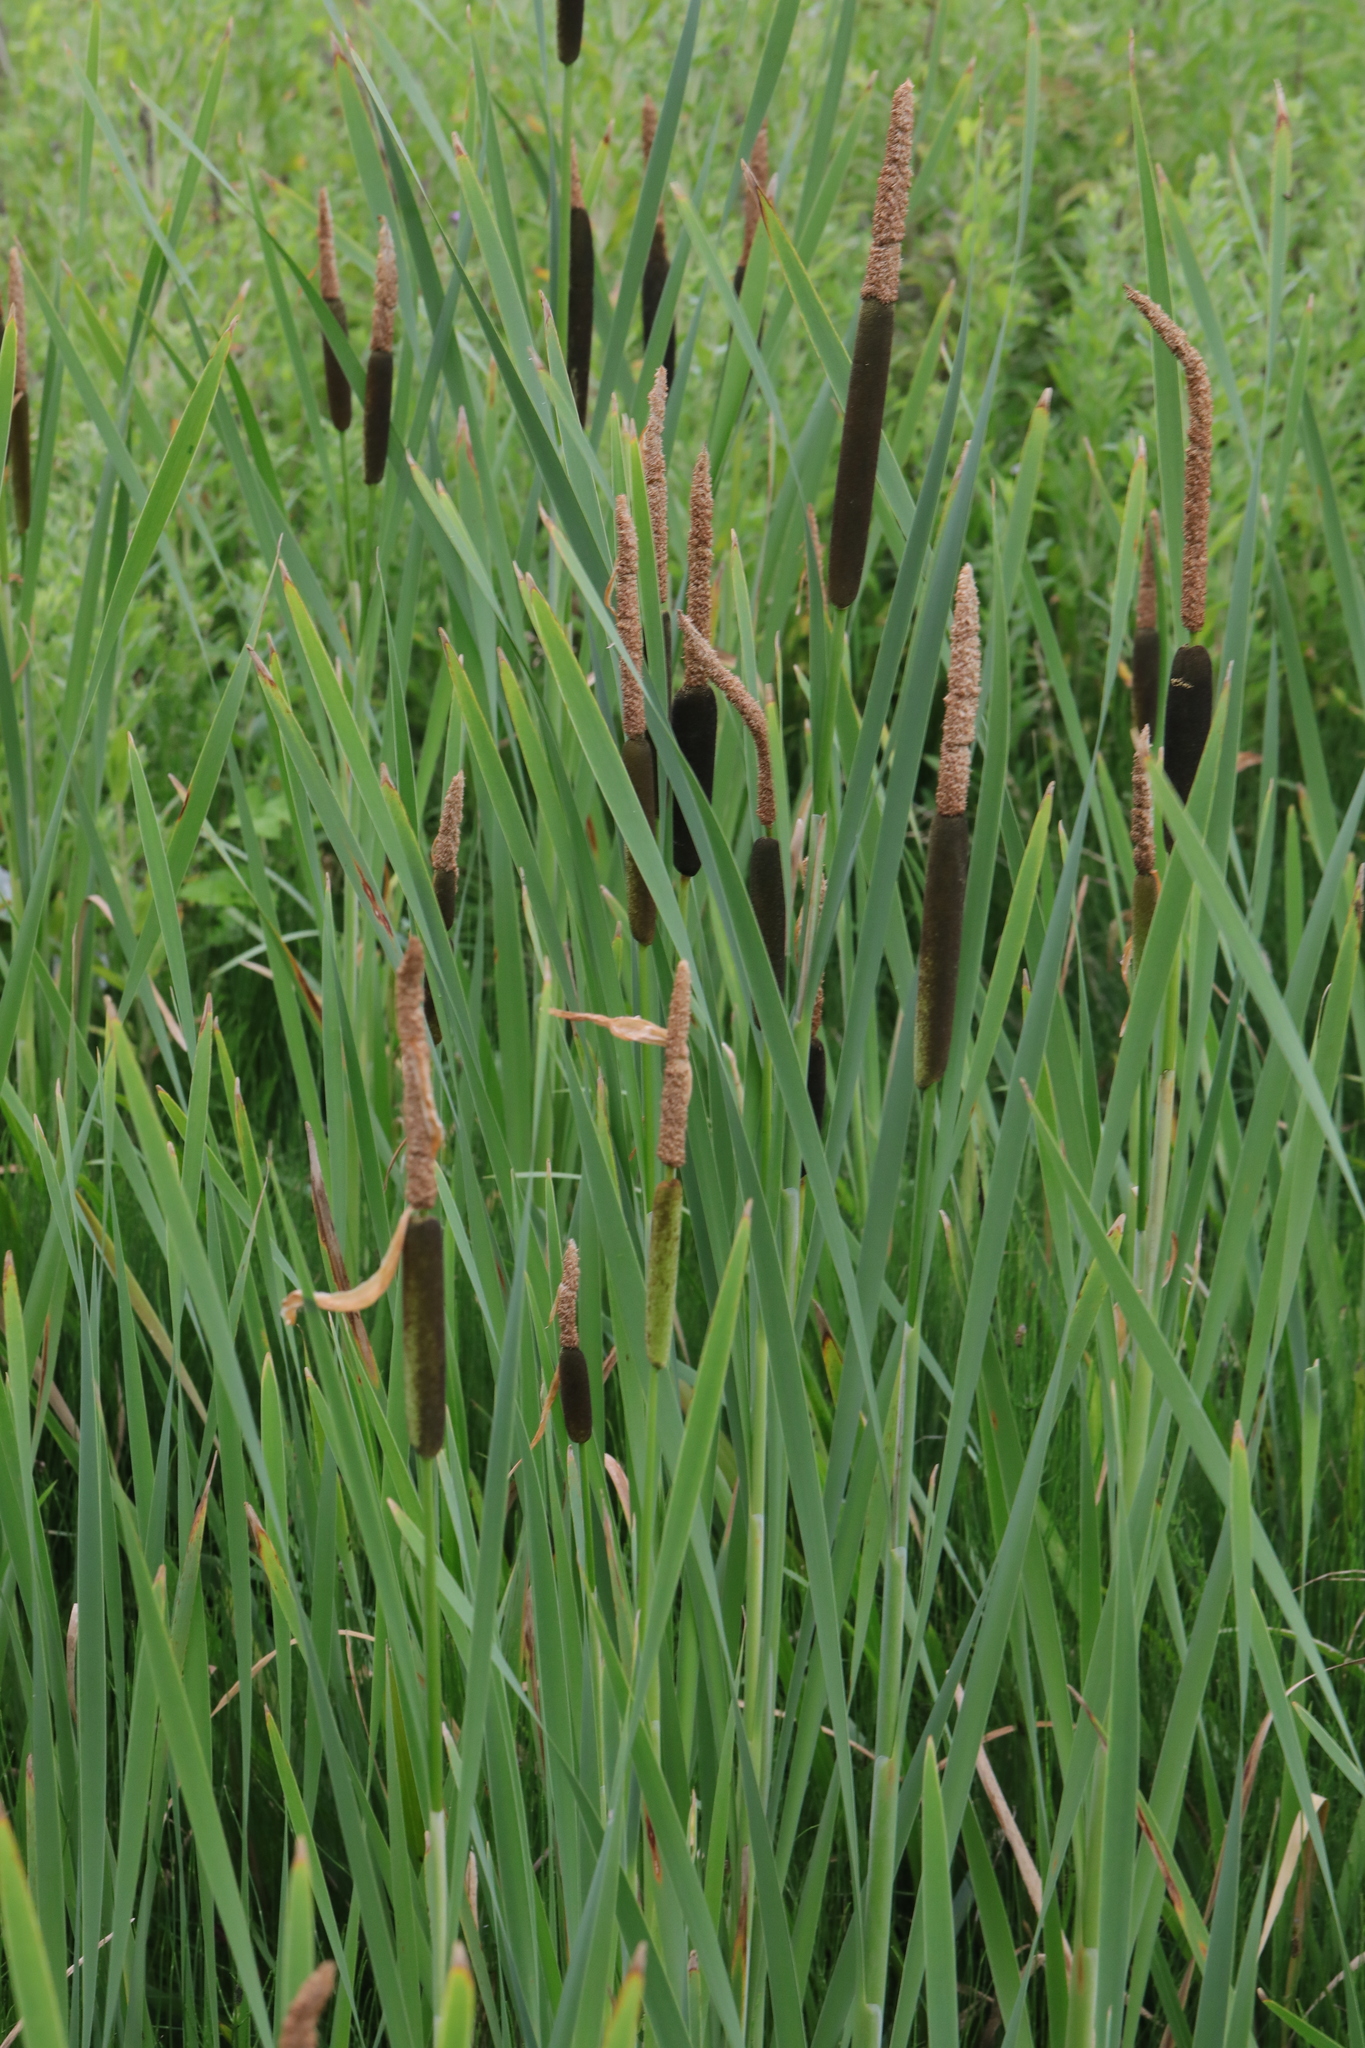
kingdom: Plantae
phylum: Tracheophyta
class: Liliopsida
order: Poales
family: Typhaceae
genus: Typha
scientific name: Typha latifolia
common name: Broadleaf cattail
